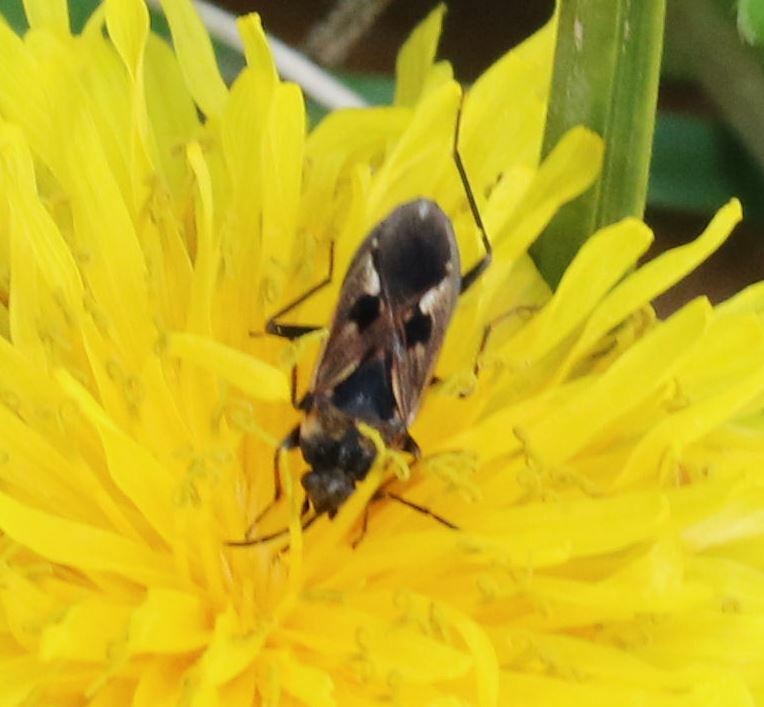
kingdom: Animalia
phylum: Arthropoda
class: Insecta
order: Hemiptera
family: Rhyparochromidae
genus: Rhyparochromus
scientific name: Rhyparochromus vulgaris
